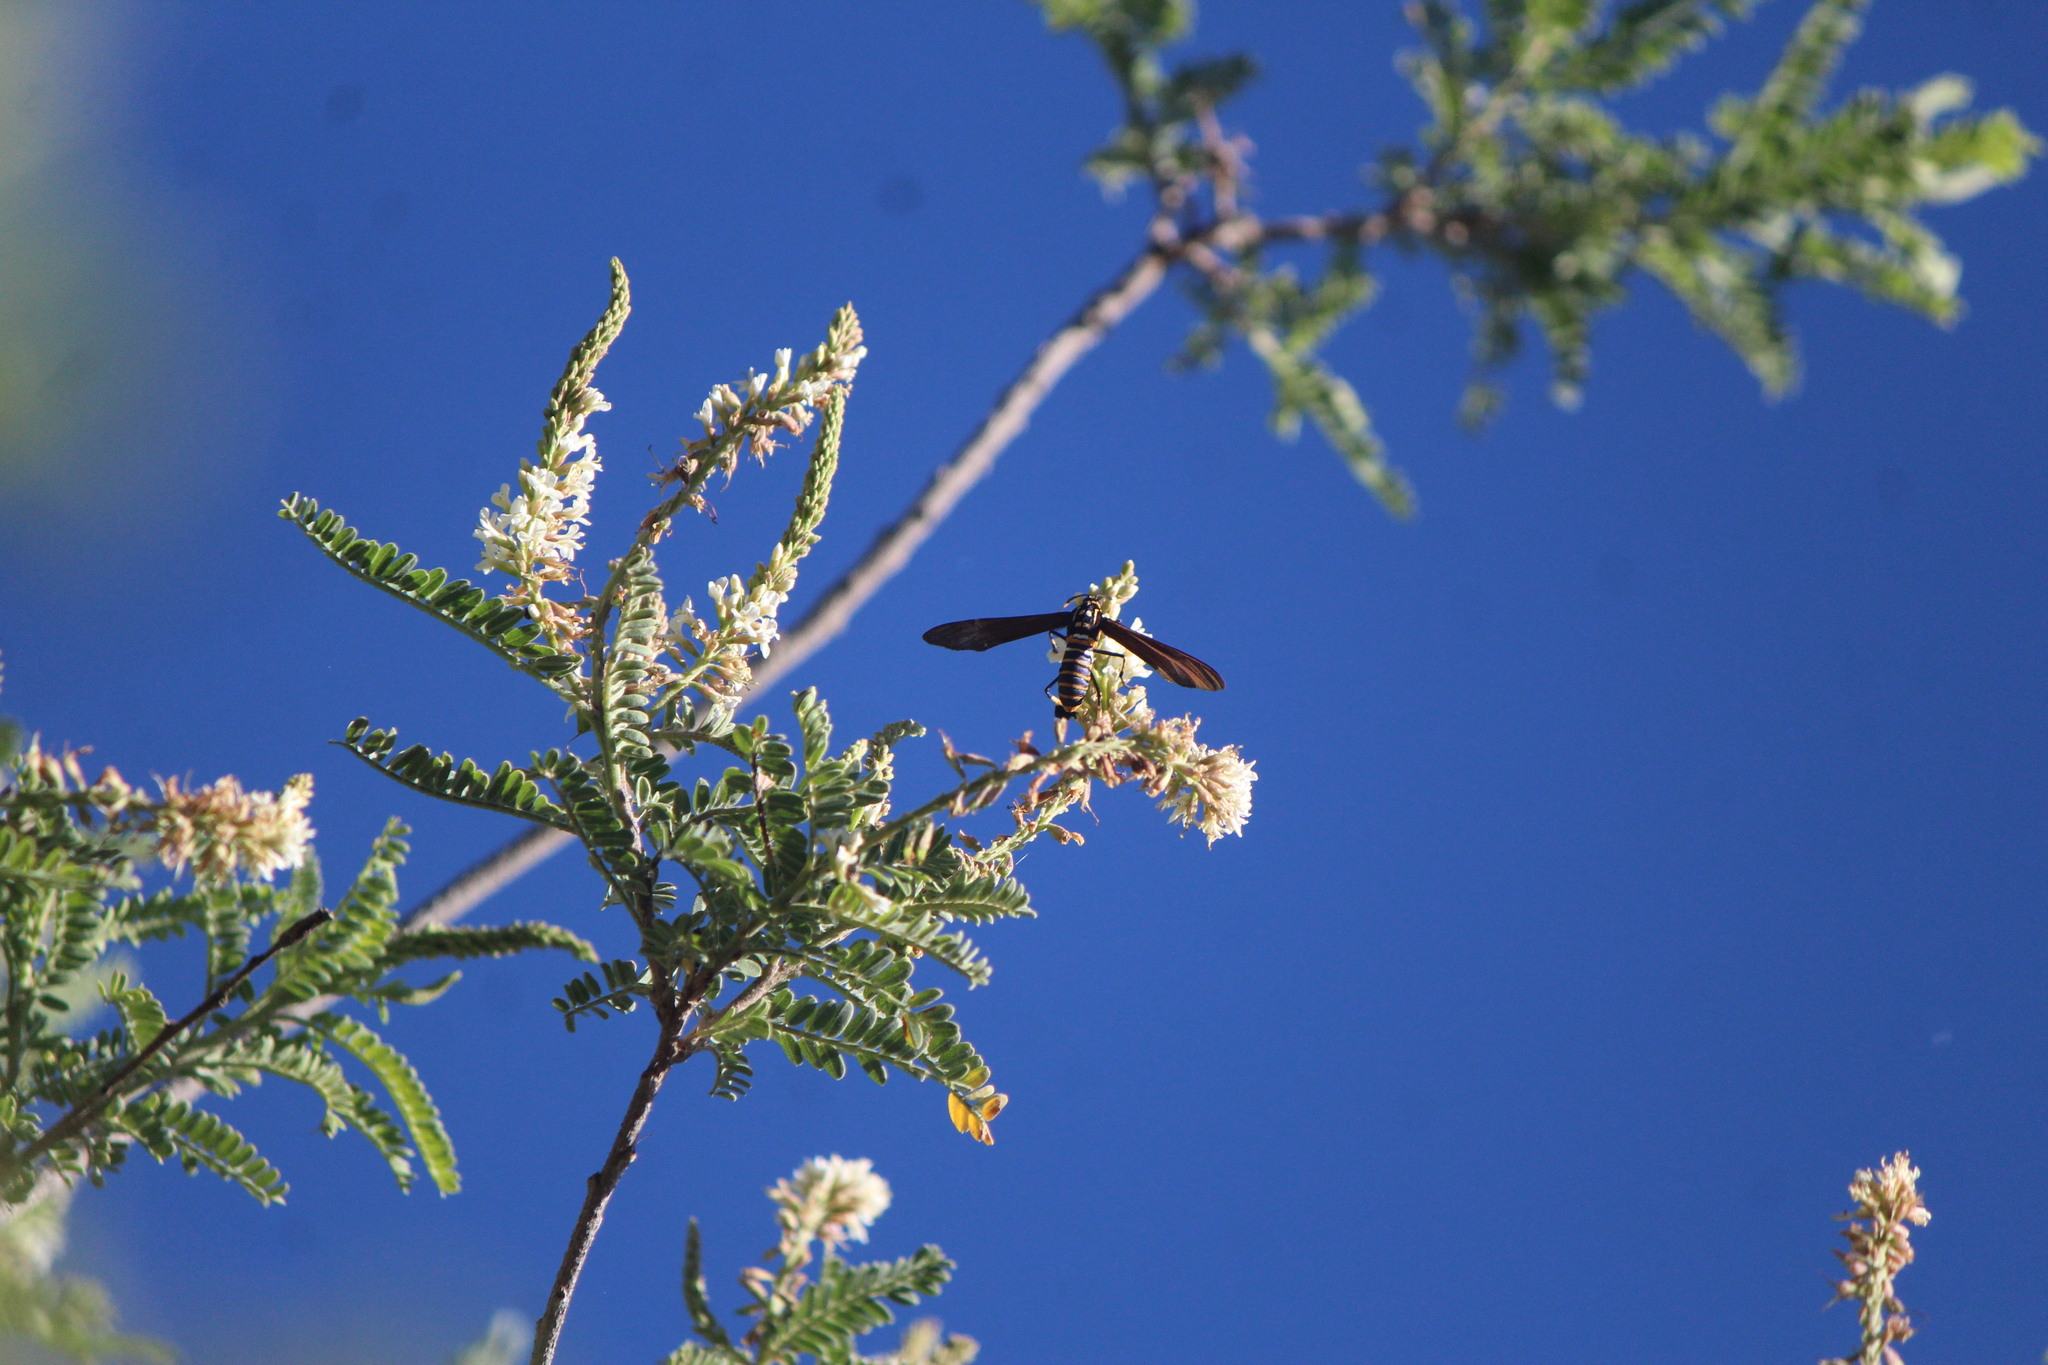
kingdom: Animalia
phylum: Arthropoda
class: Insecta
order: Lepidoptera
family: Erebidae
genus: Horama
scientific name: Horama panthalon
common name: Texas wasp moth
